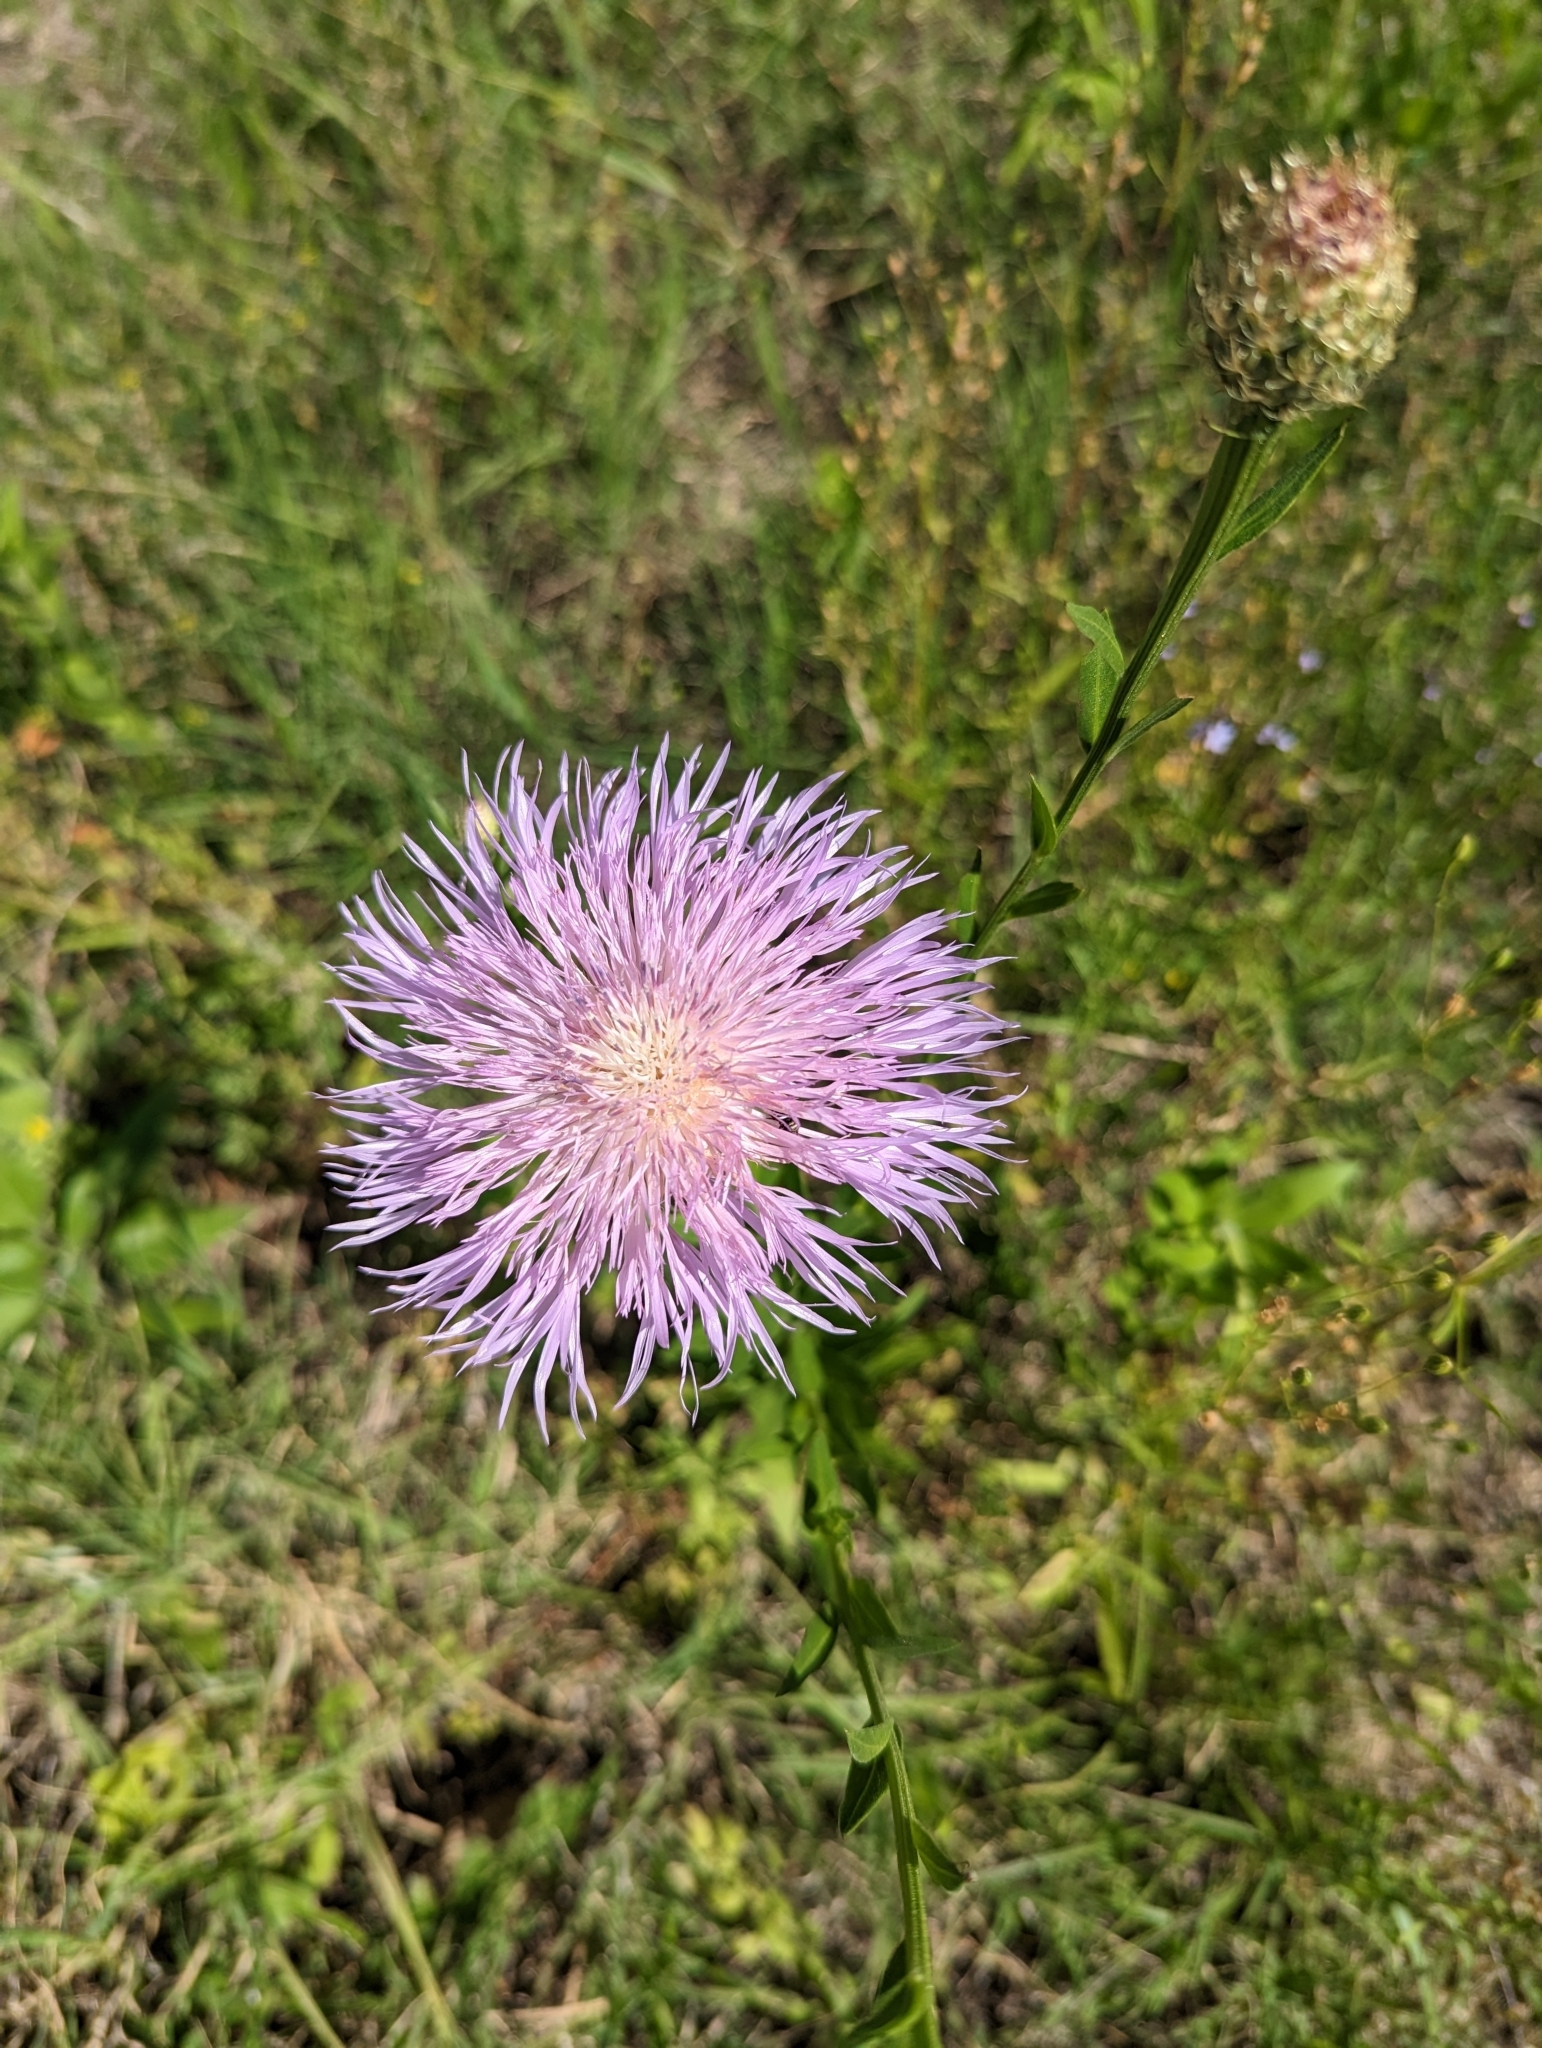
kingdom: Plantae
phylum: Tracheophyta
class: Magnoliopsida
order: Asterales
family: Asteraceae
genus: Plectocephalus
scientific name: Plectocephalus americanus
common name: American basket-flower
